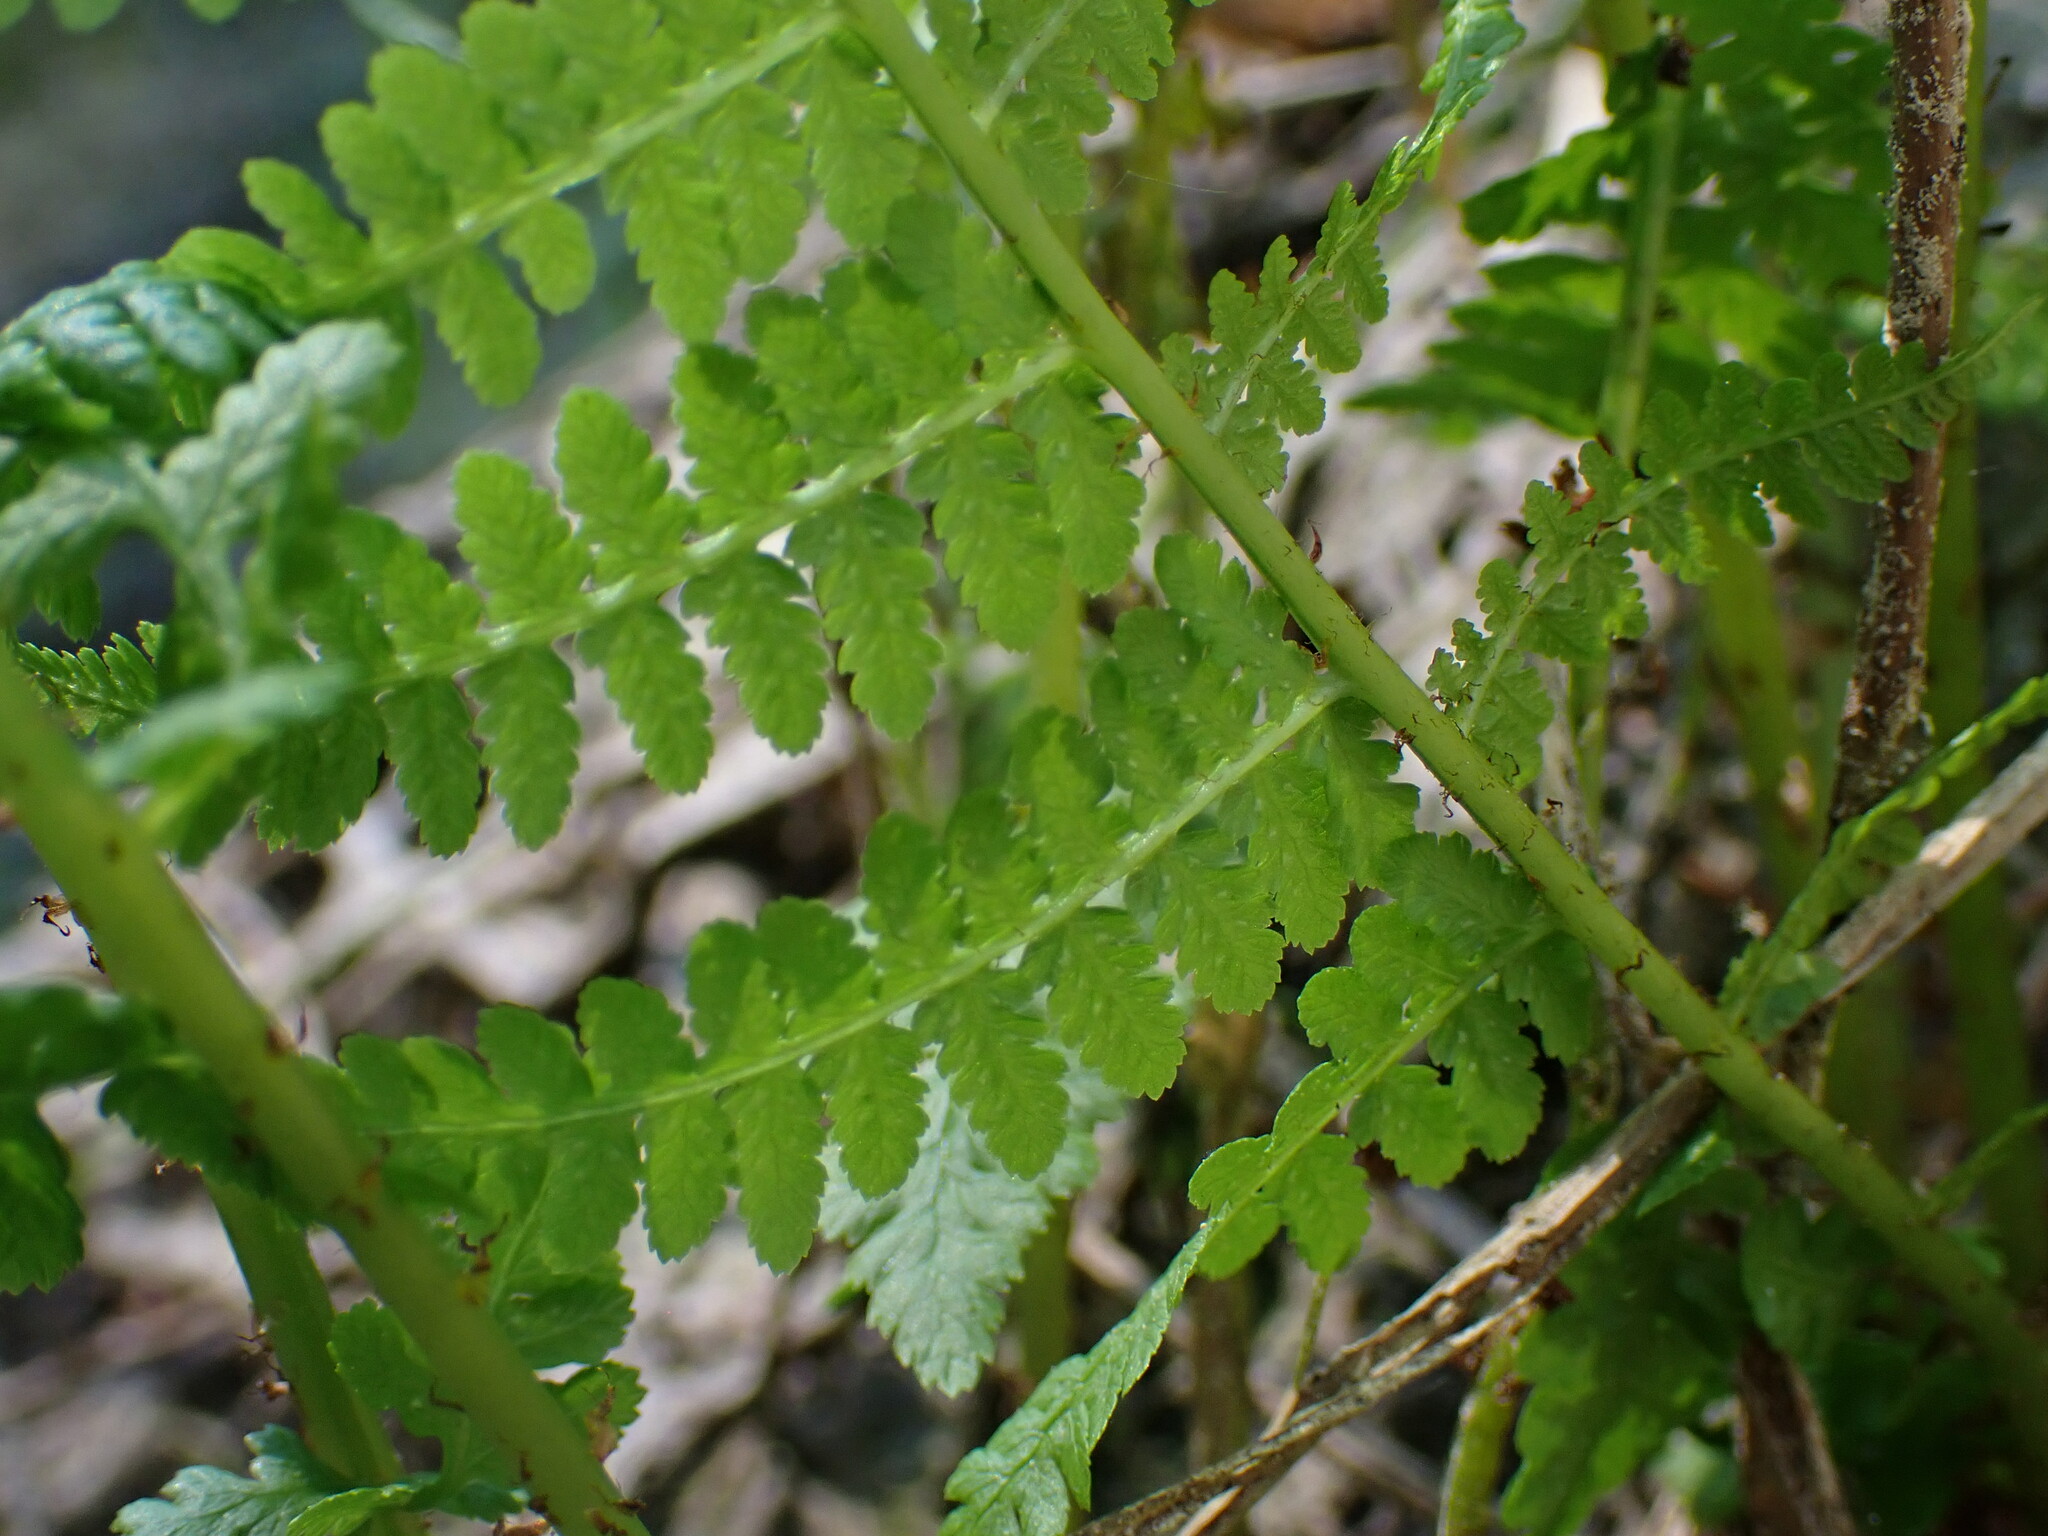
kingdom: Plantae
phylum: Tracheophyta
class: Polypodiopsida
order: Polypodiales
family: Athyriaceae
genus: Athyrium
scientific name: Athyrium filix-femina
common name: Lady fern
